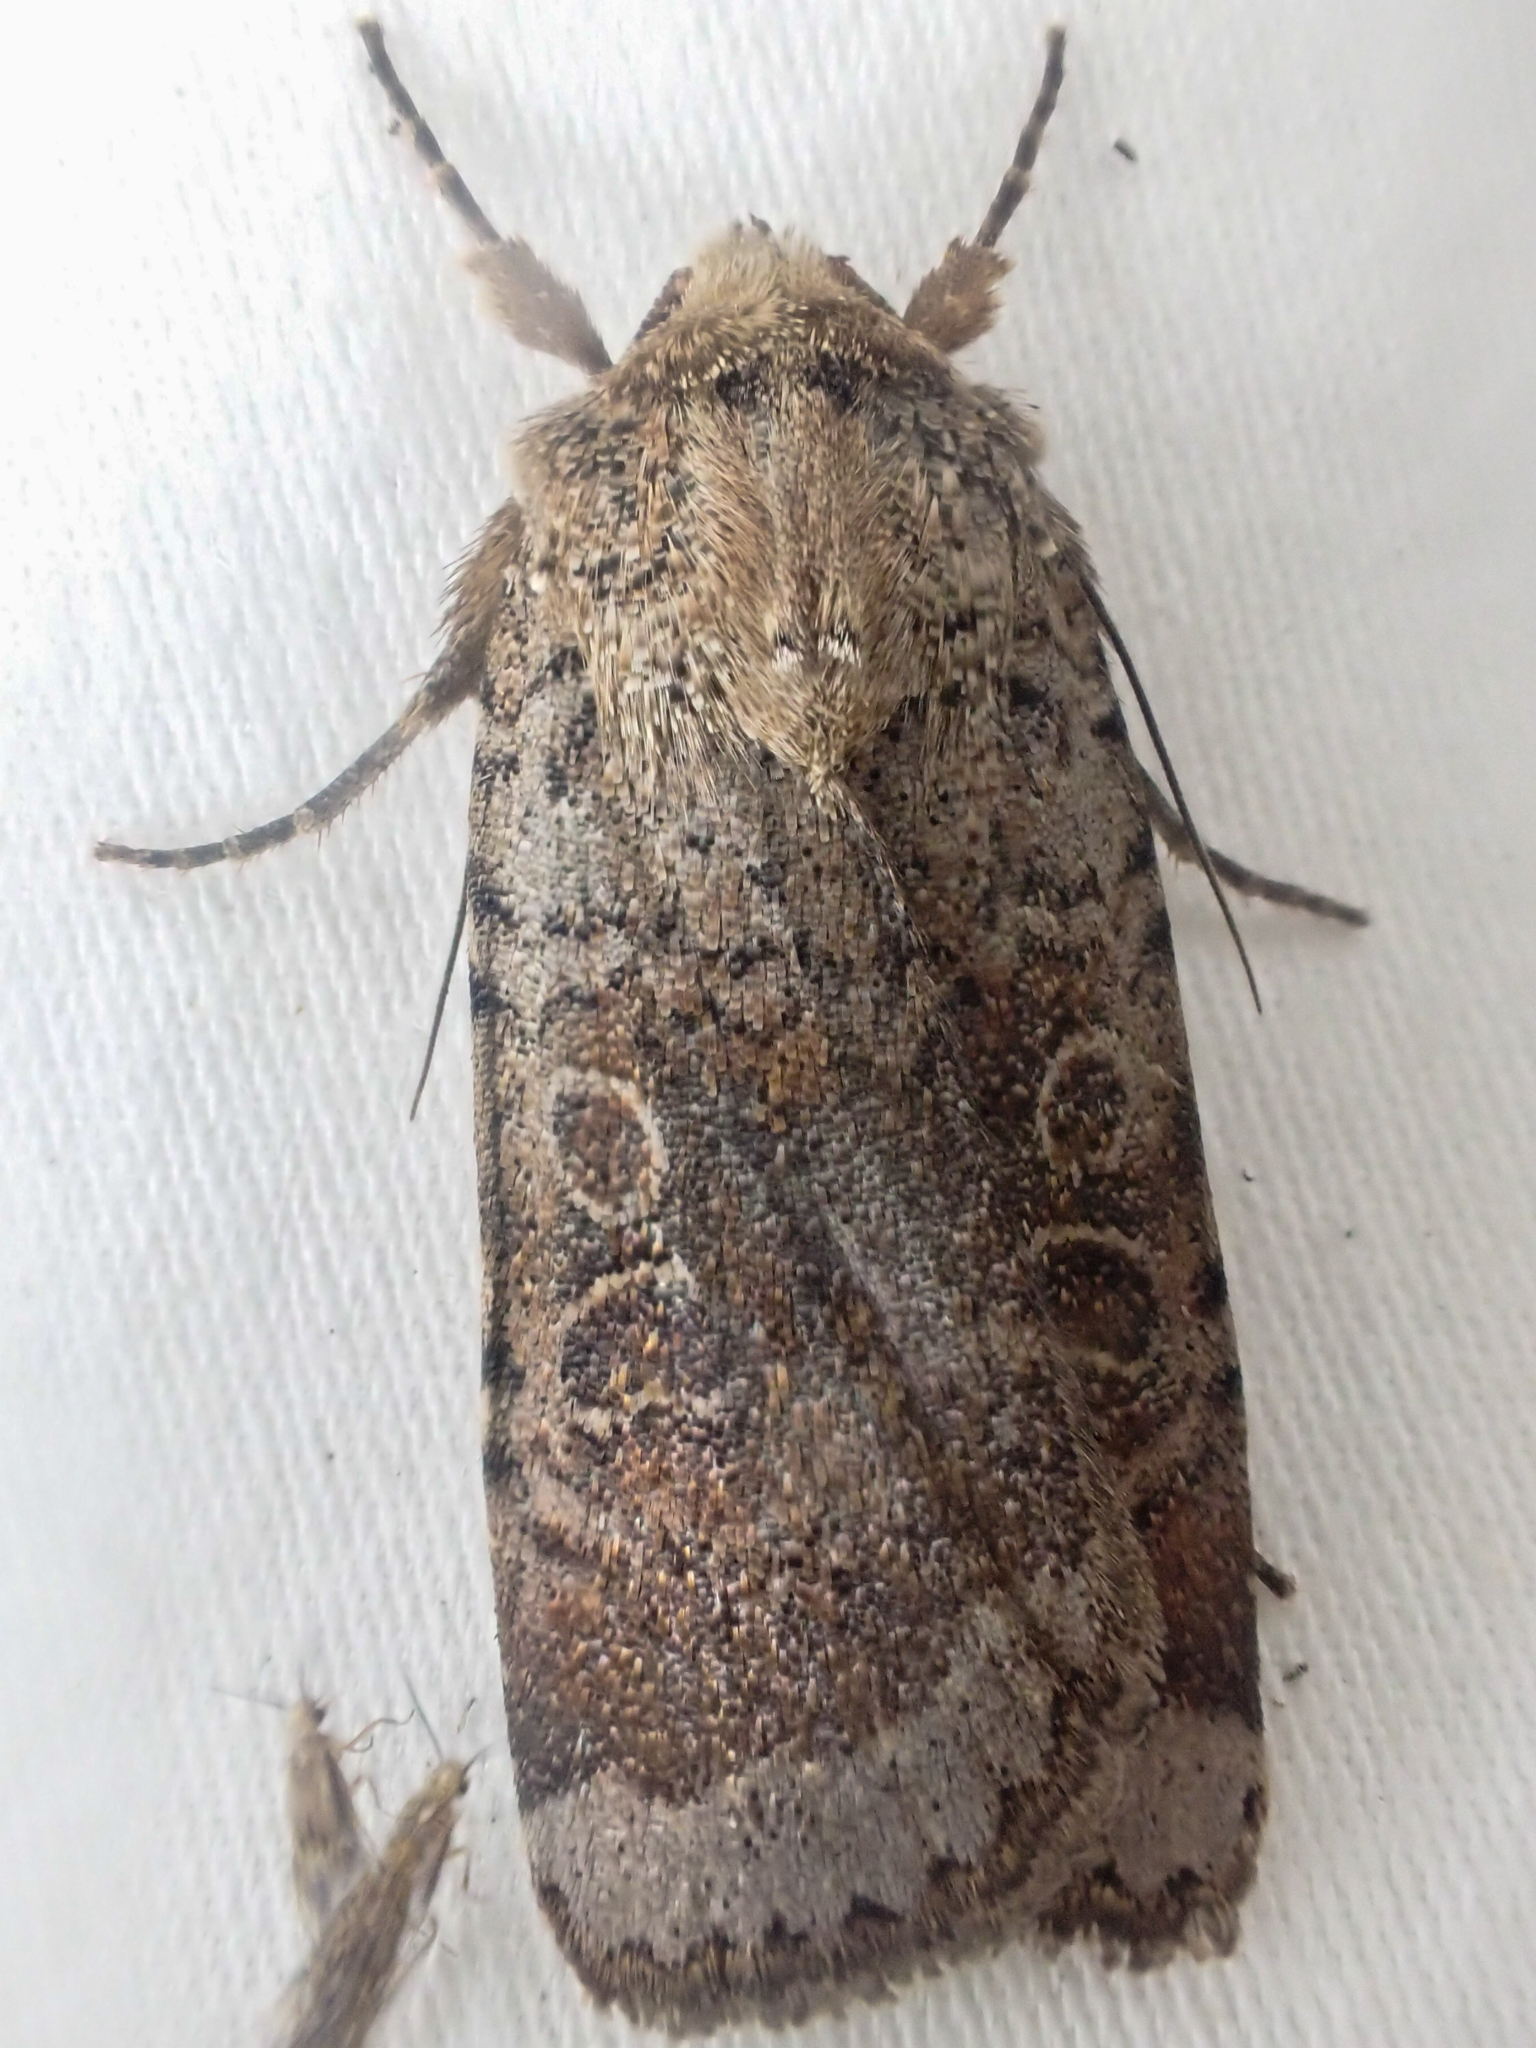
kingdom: Animalia
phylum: Arthropoda
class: Insecta
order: Lepidoptera
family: Noctuidae
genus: Abagrotis
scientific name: Abagrotis scopeops
